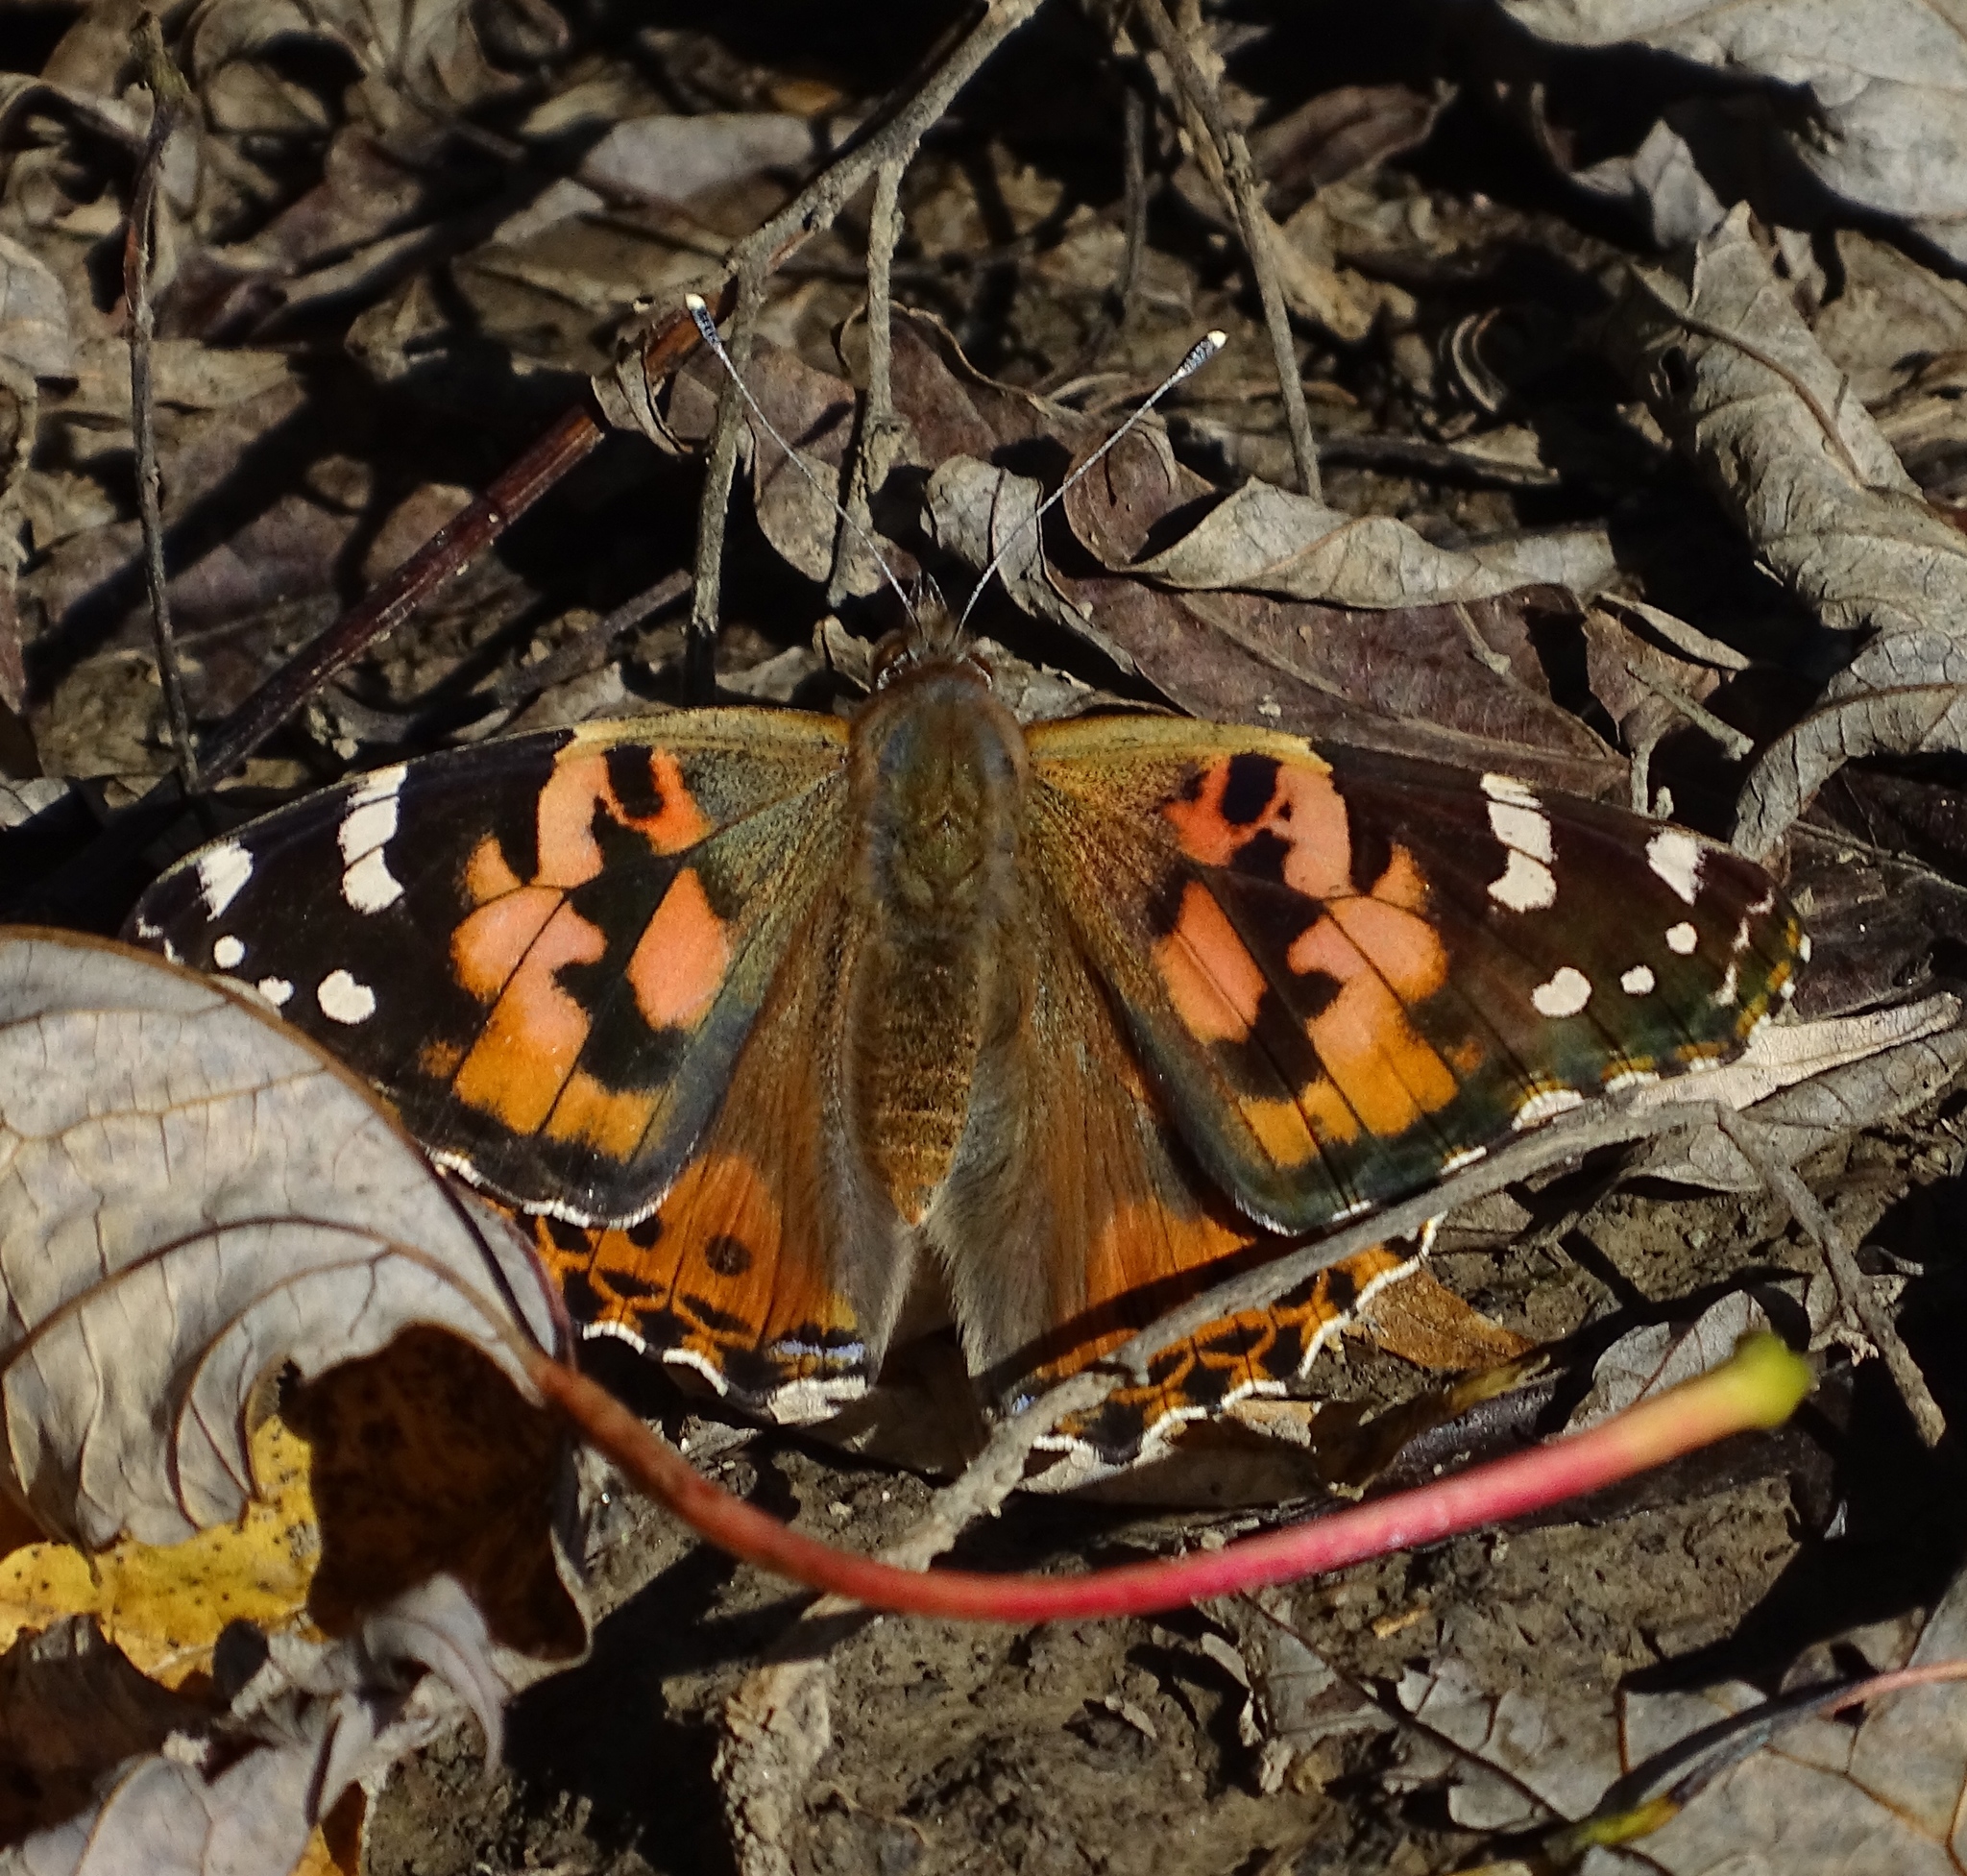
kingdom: Animalia
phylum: Arthropoda
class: Insecta
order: Lepidoptera
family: Nymphalidae
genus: Vanessa
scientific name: Vanessa cardui
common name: Painted lady
